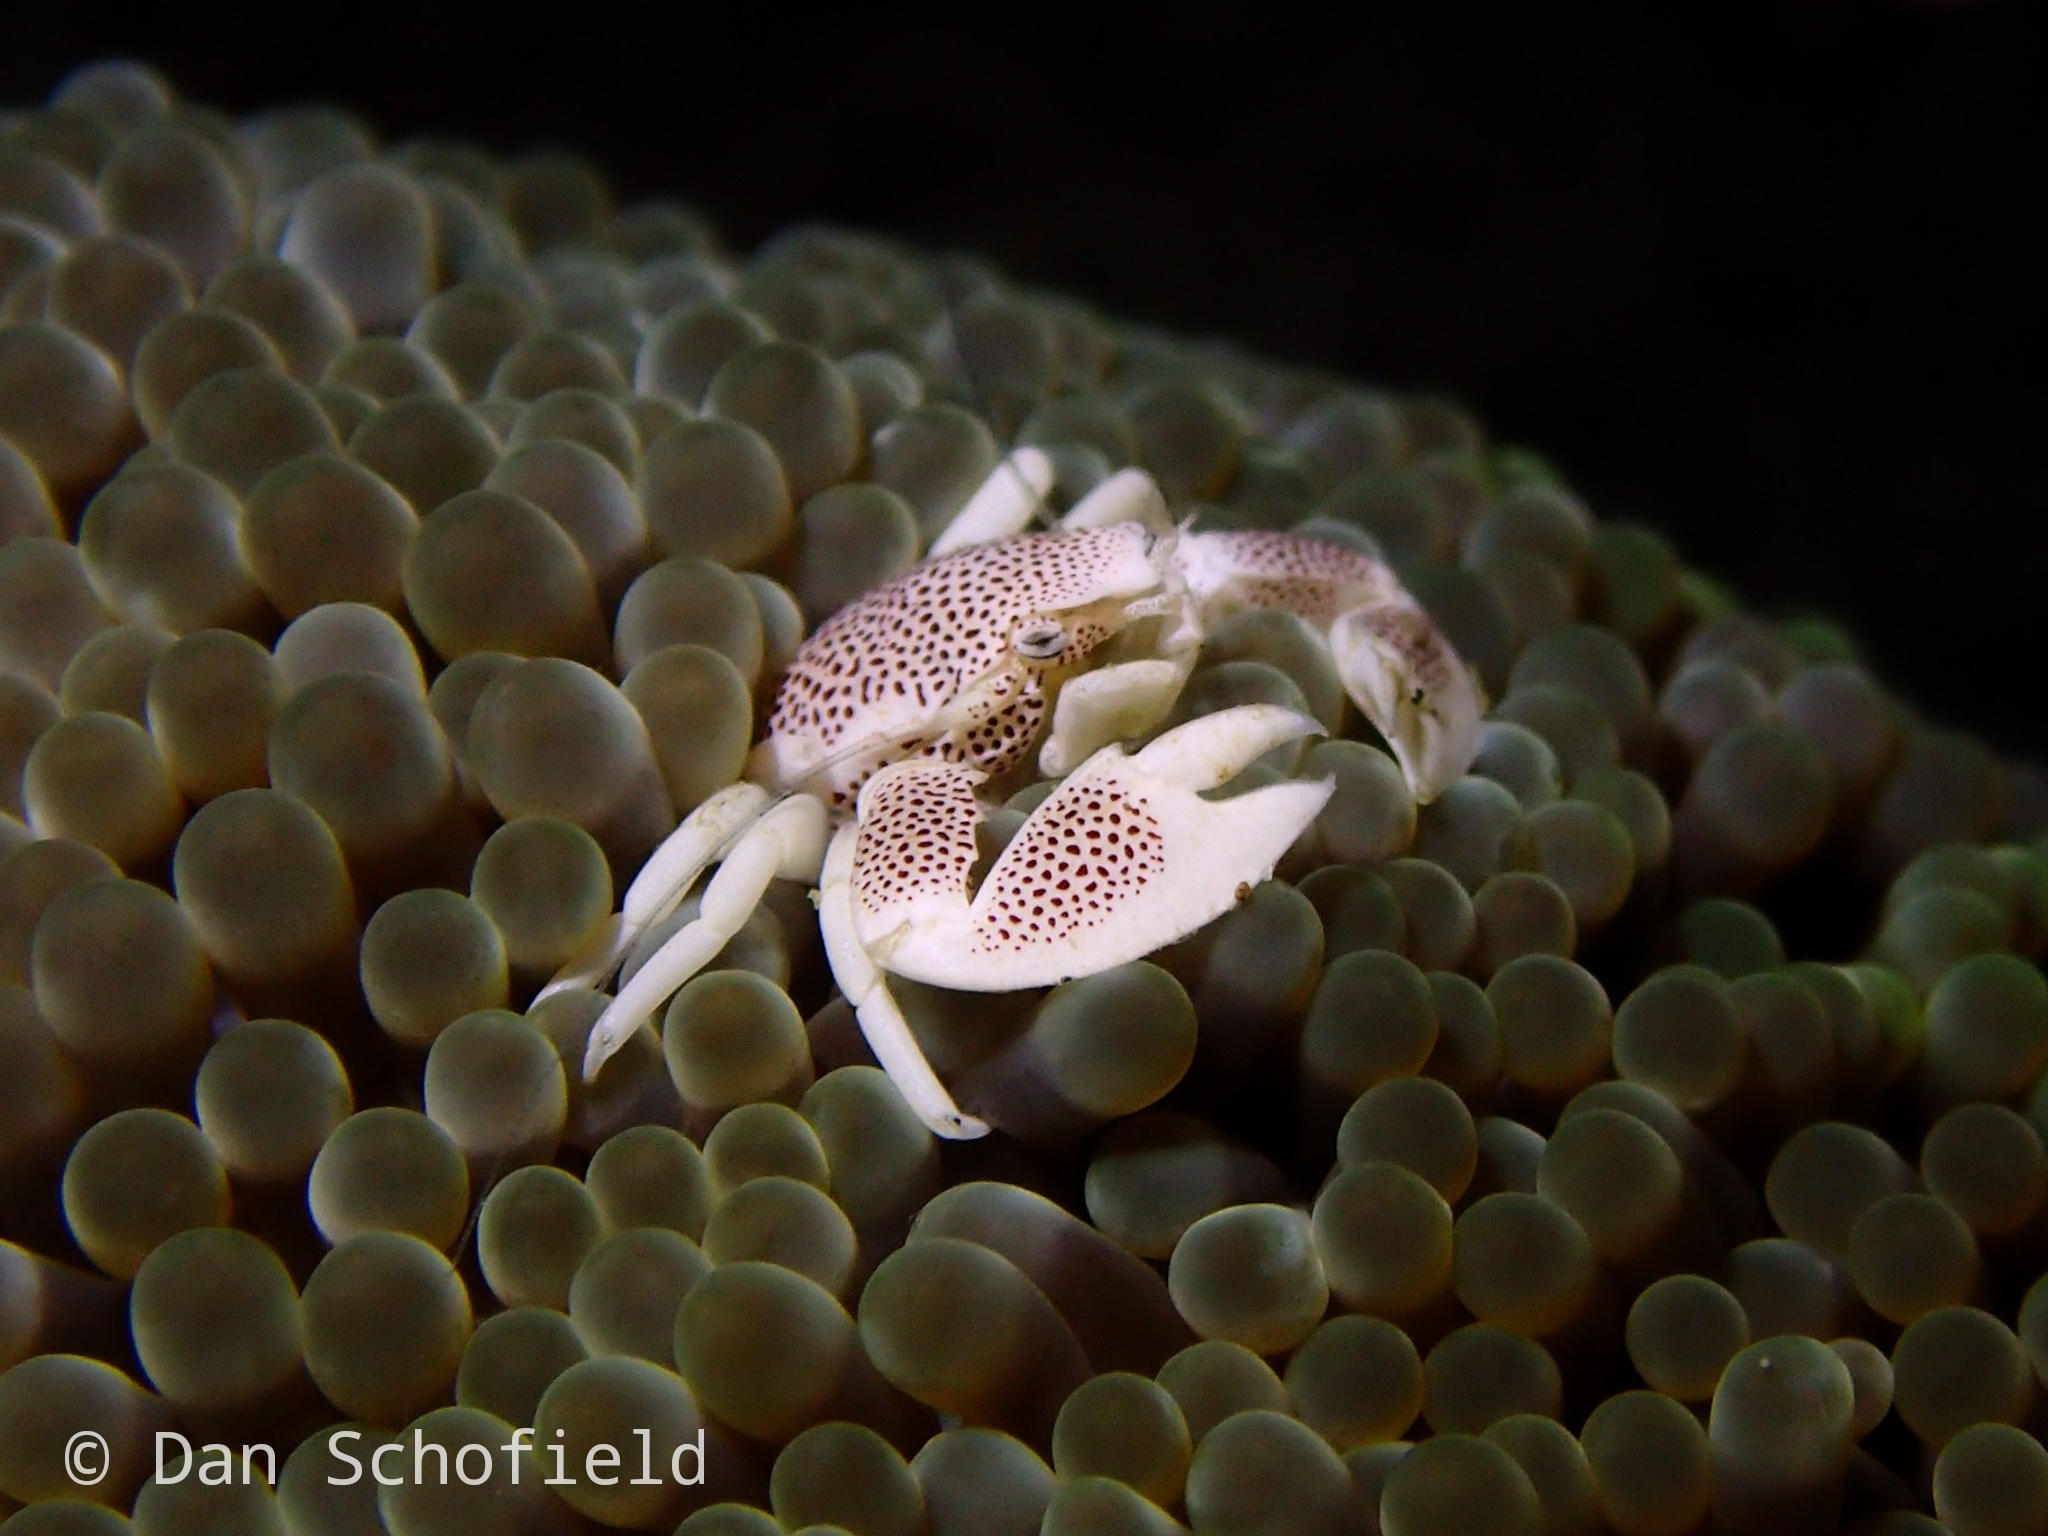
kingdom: Animalia
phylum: Arthropoda
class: Malacostraca
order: Decapoda
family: Porcellanidae
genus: Neopetrolisthes
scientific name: Neopetrolisthes maculatus
